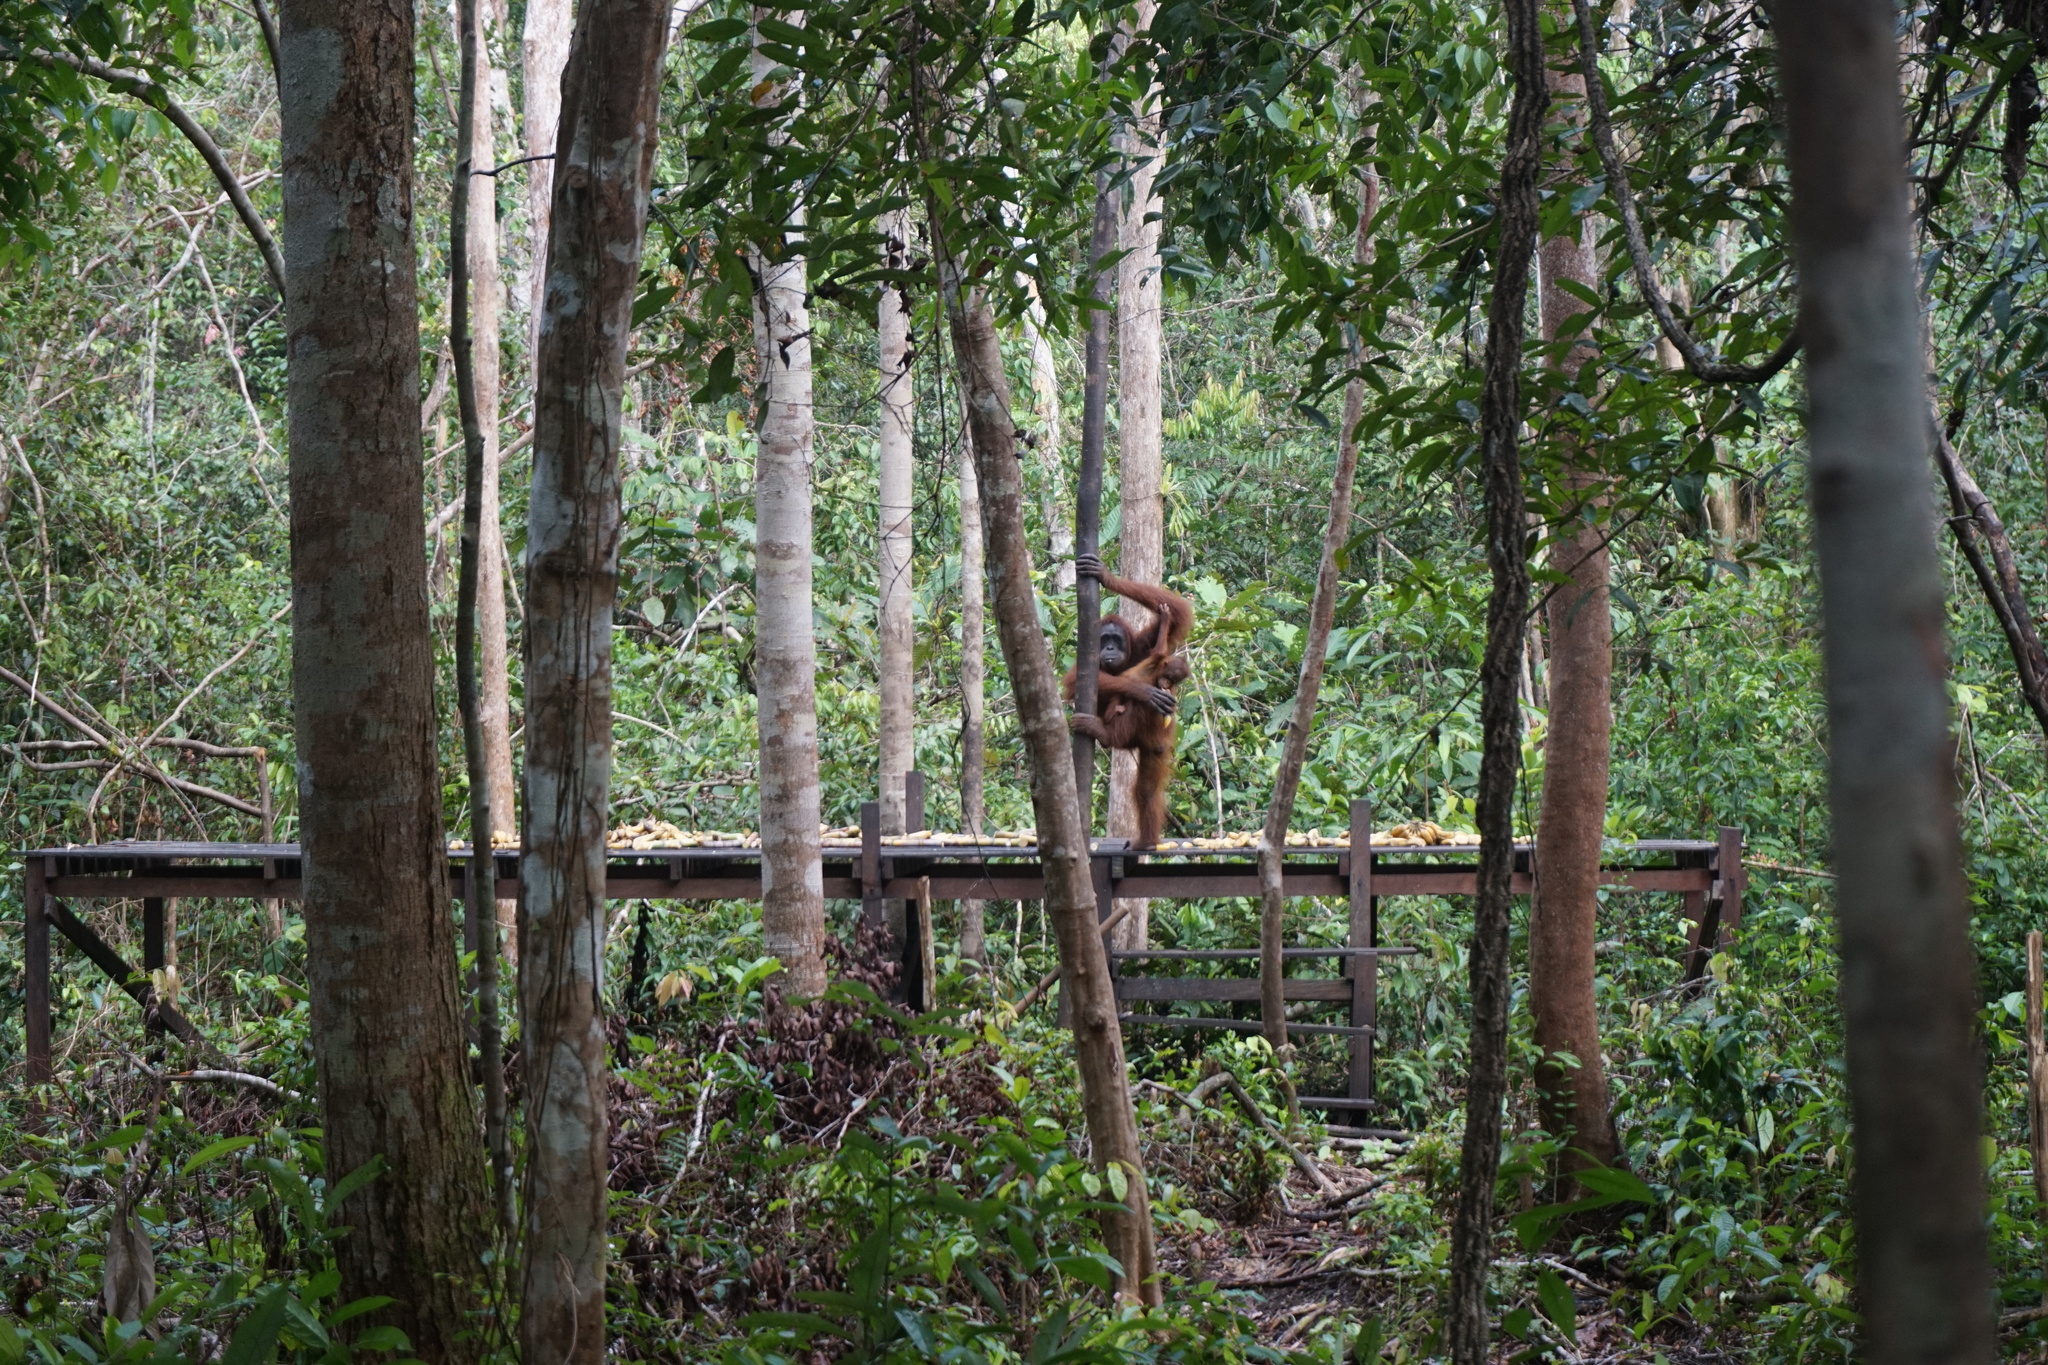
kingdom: Animalia
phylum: Chordata
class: Mammalia
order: Primates
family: Hominidae
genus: Pongo
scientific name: Pongo pygmaeus
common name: Bornean orangutan
